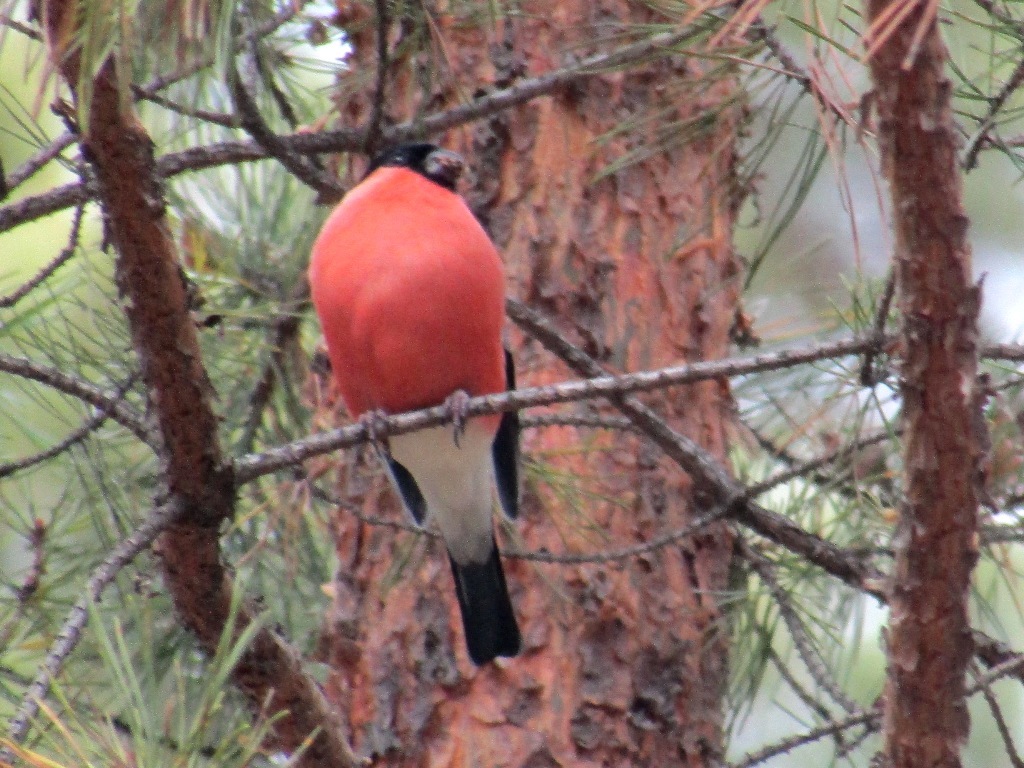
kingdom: Animalia
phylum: Chordata
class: Aves
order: Passeriformes
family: Fringillidae
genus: Pyrrhula
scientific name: Pyrrhula pyrrhula
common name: Eurasian bullfinch
